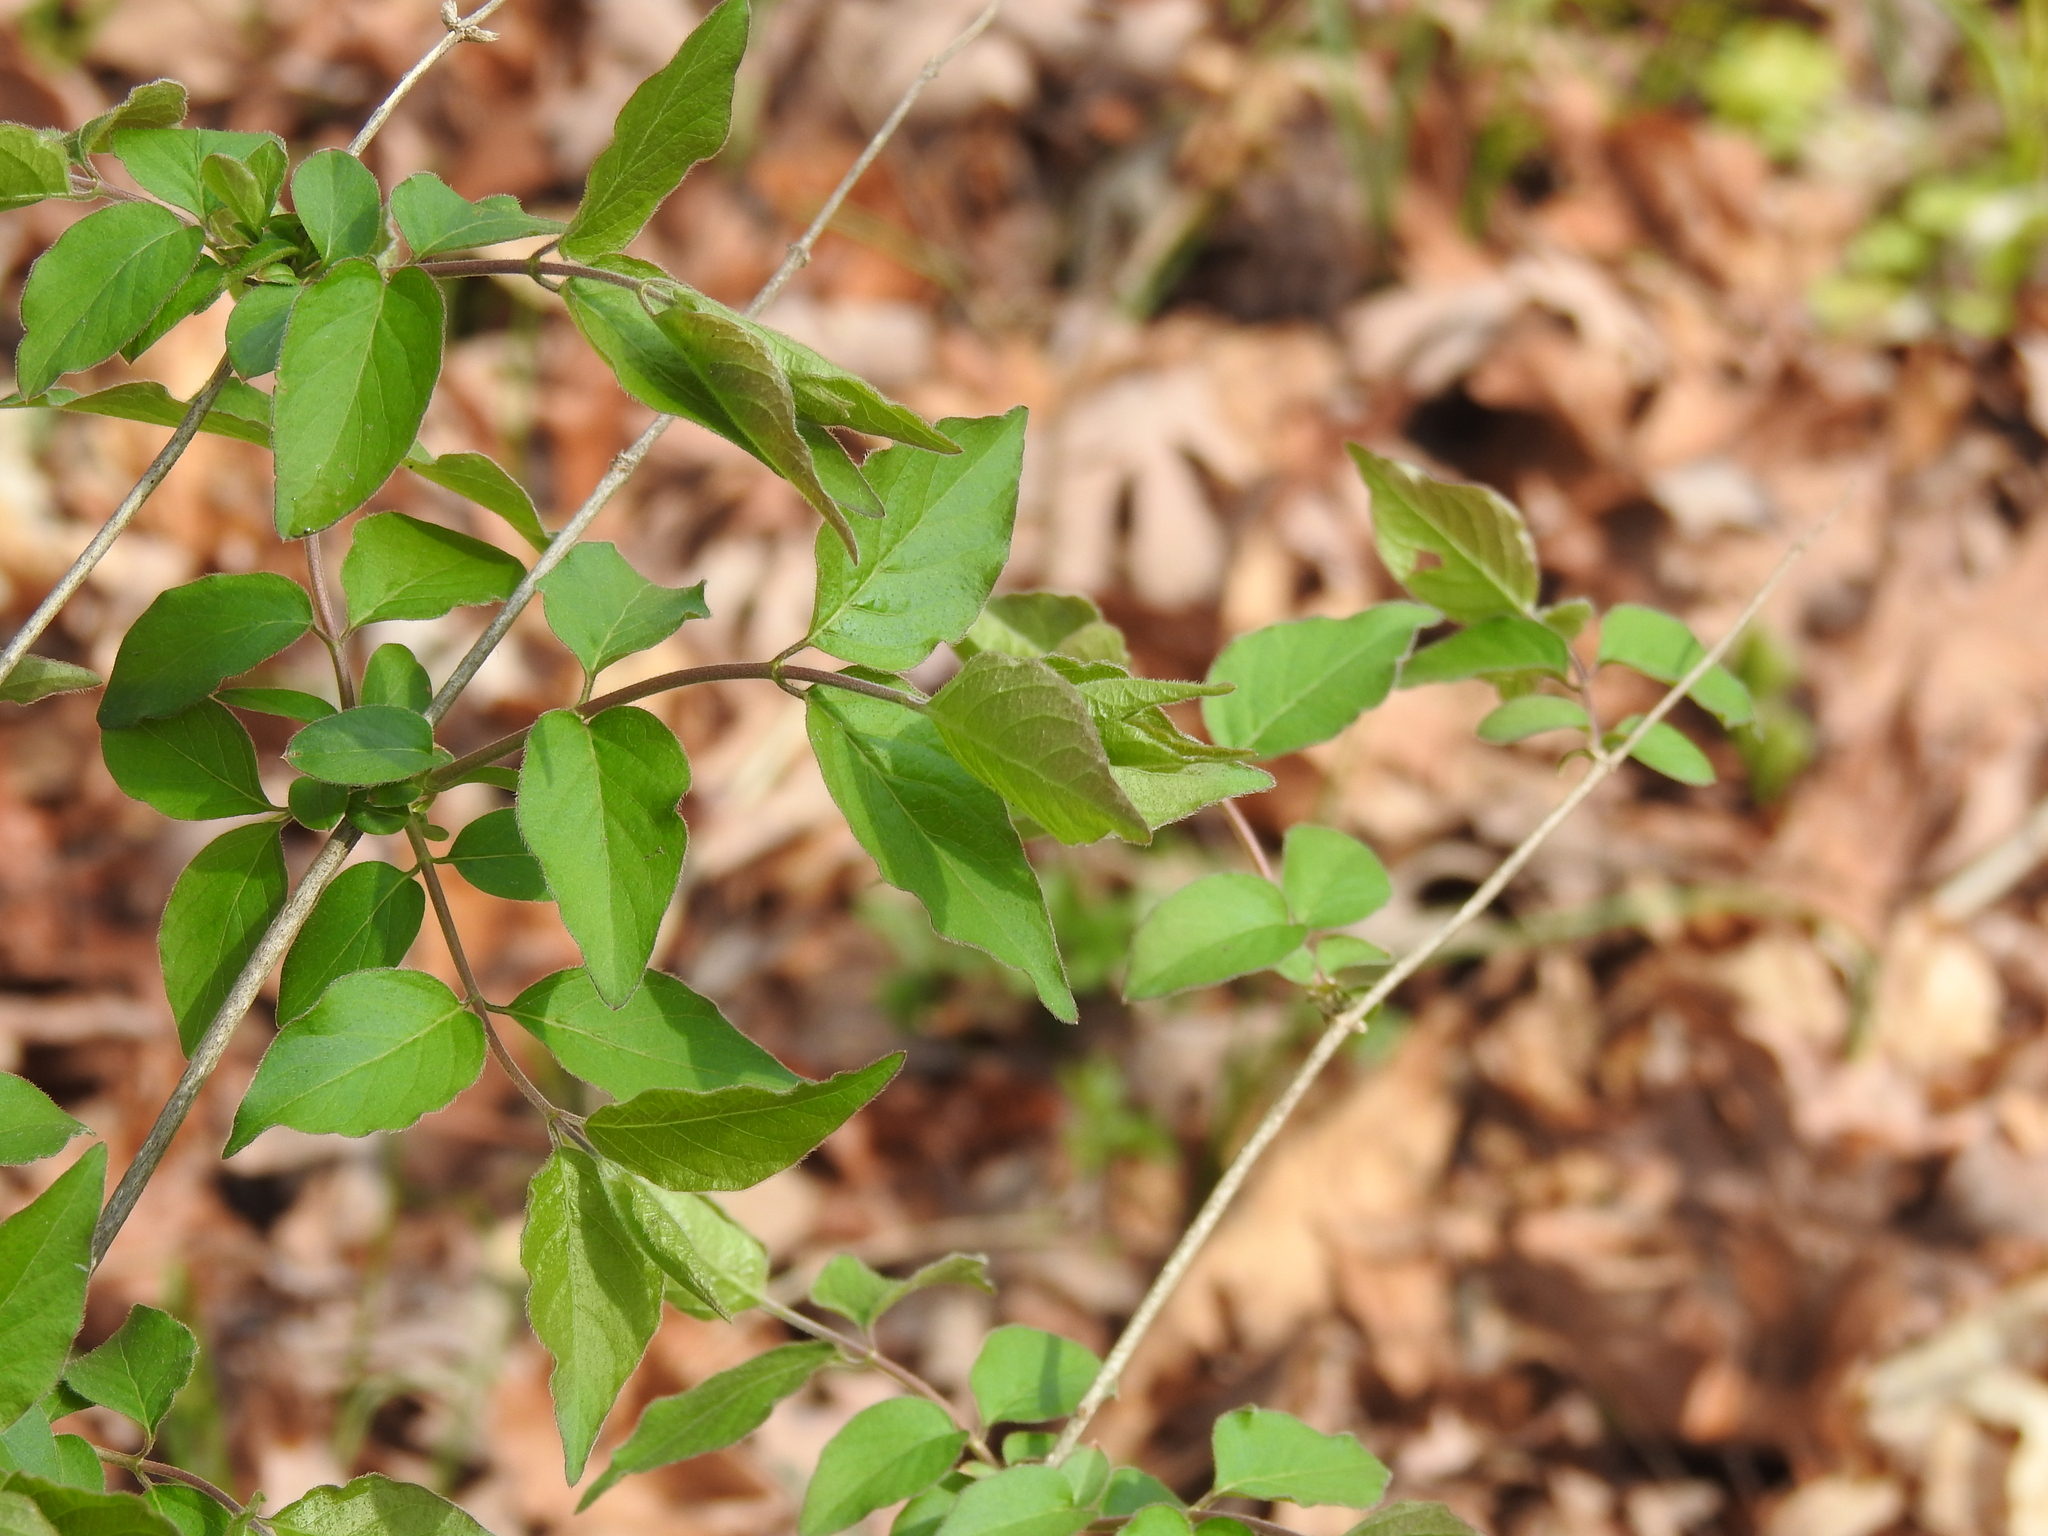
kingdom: Plantae
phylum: Tracheophyta
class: Magnoliopsida
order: Dipsacales
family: Caprifoliaceae
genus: Lonicera
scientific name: Lonicera maackii
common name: Amur honeysuckle
